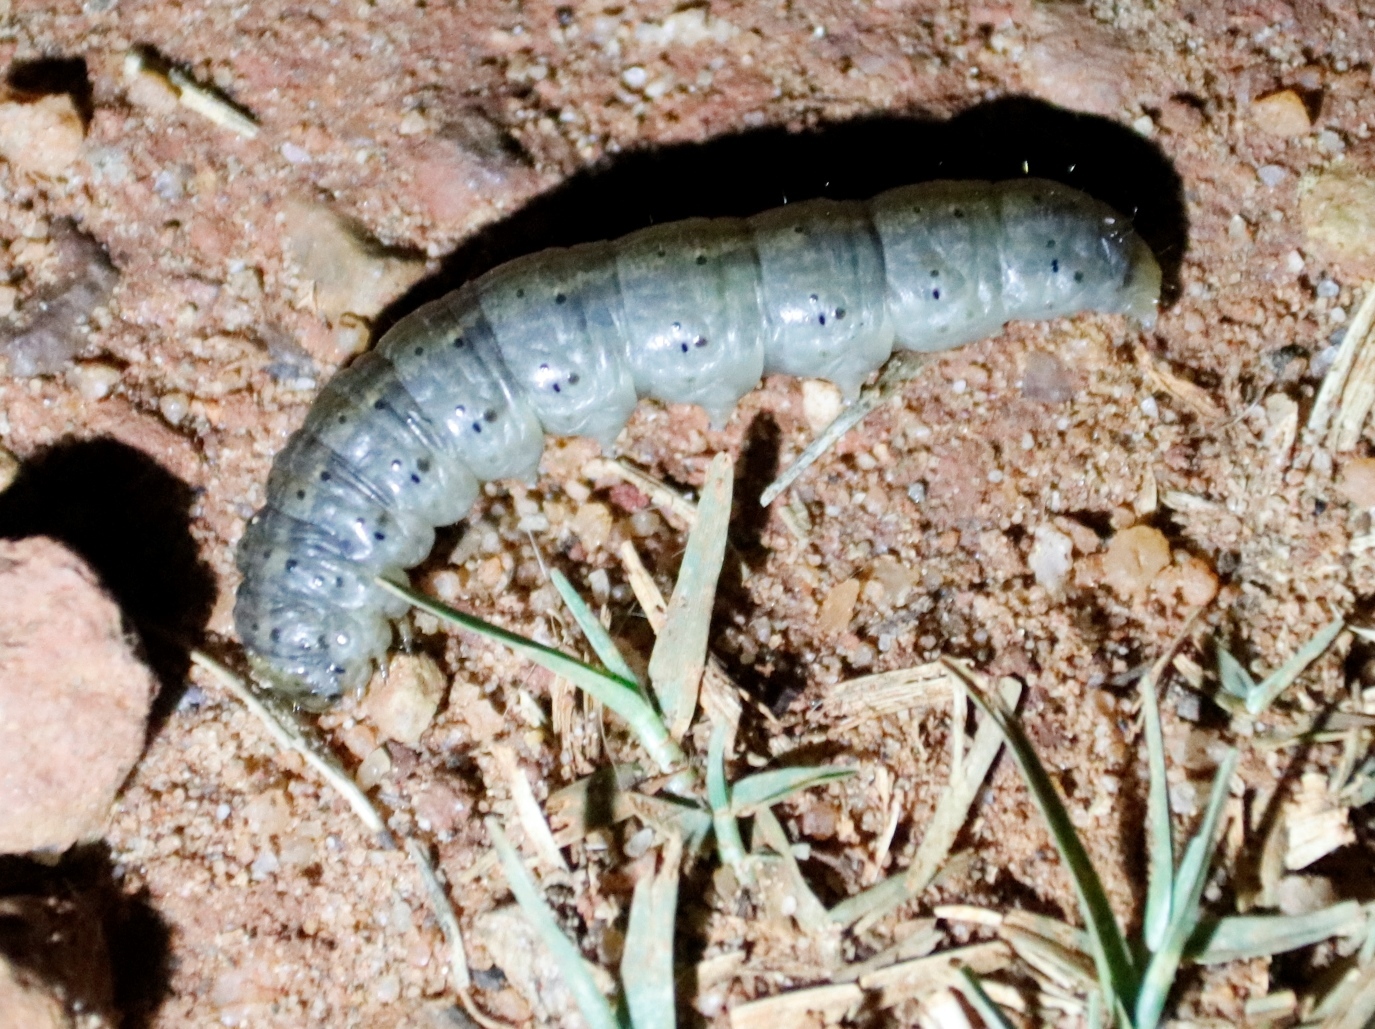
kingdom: Animalia
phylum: Arthropoda
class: Insecta
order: Lepidoptera
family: Noctuidae
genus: Agrotis
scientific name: Agrotis segetum
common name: Turnip moth
